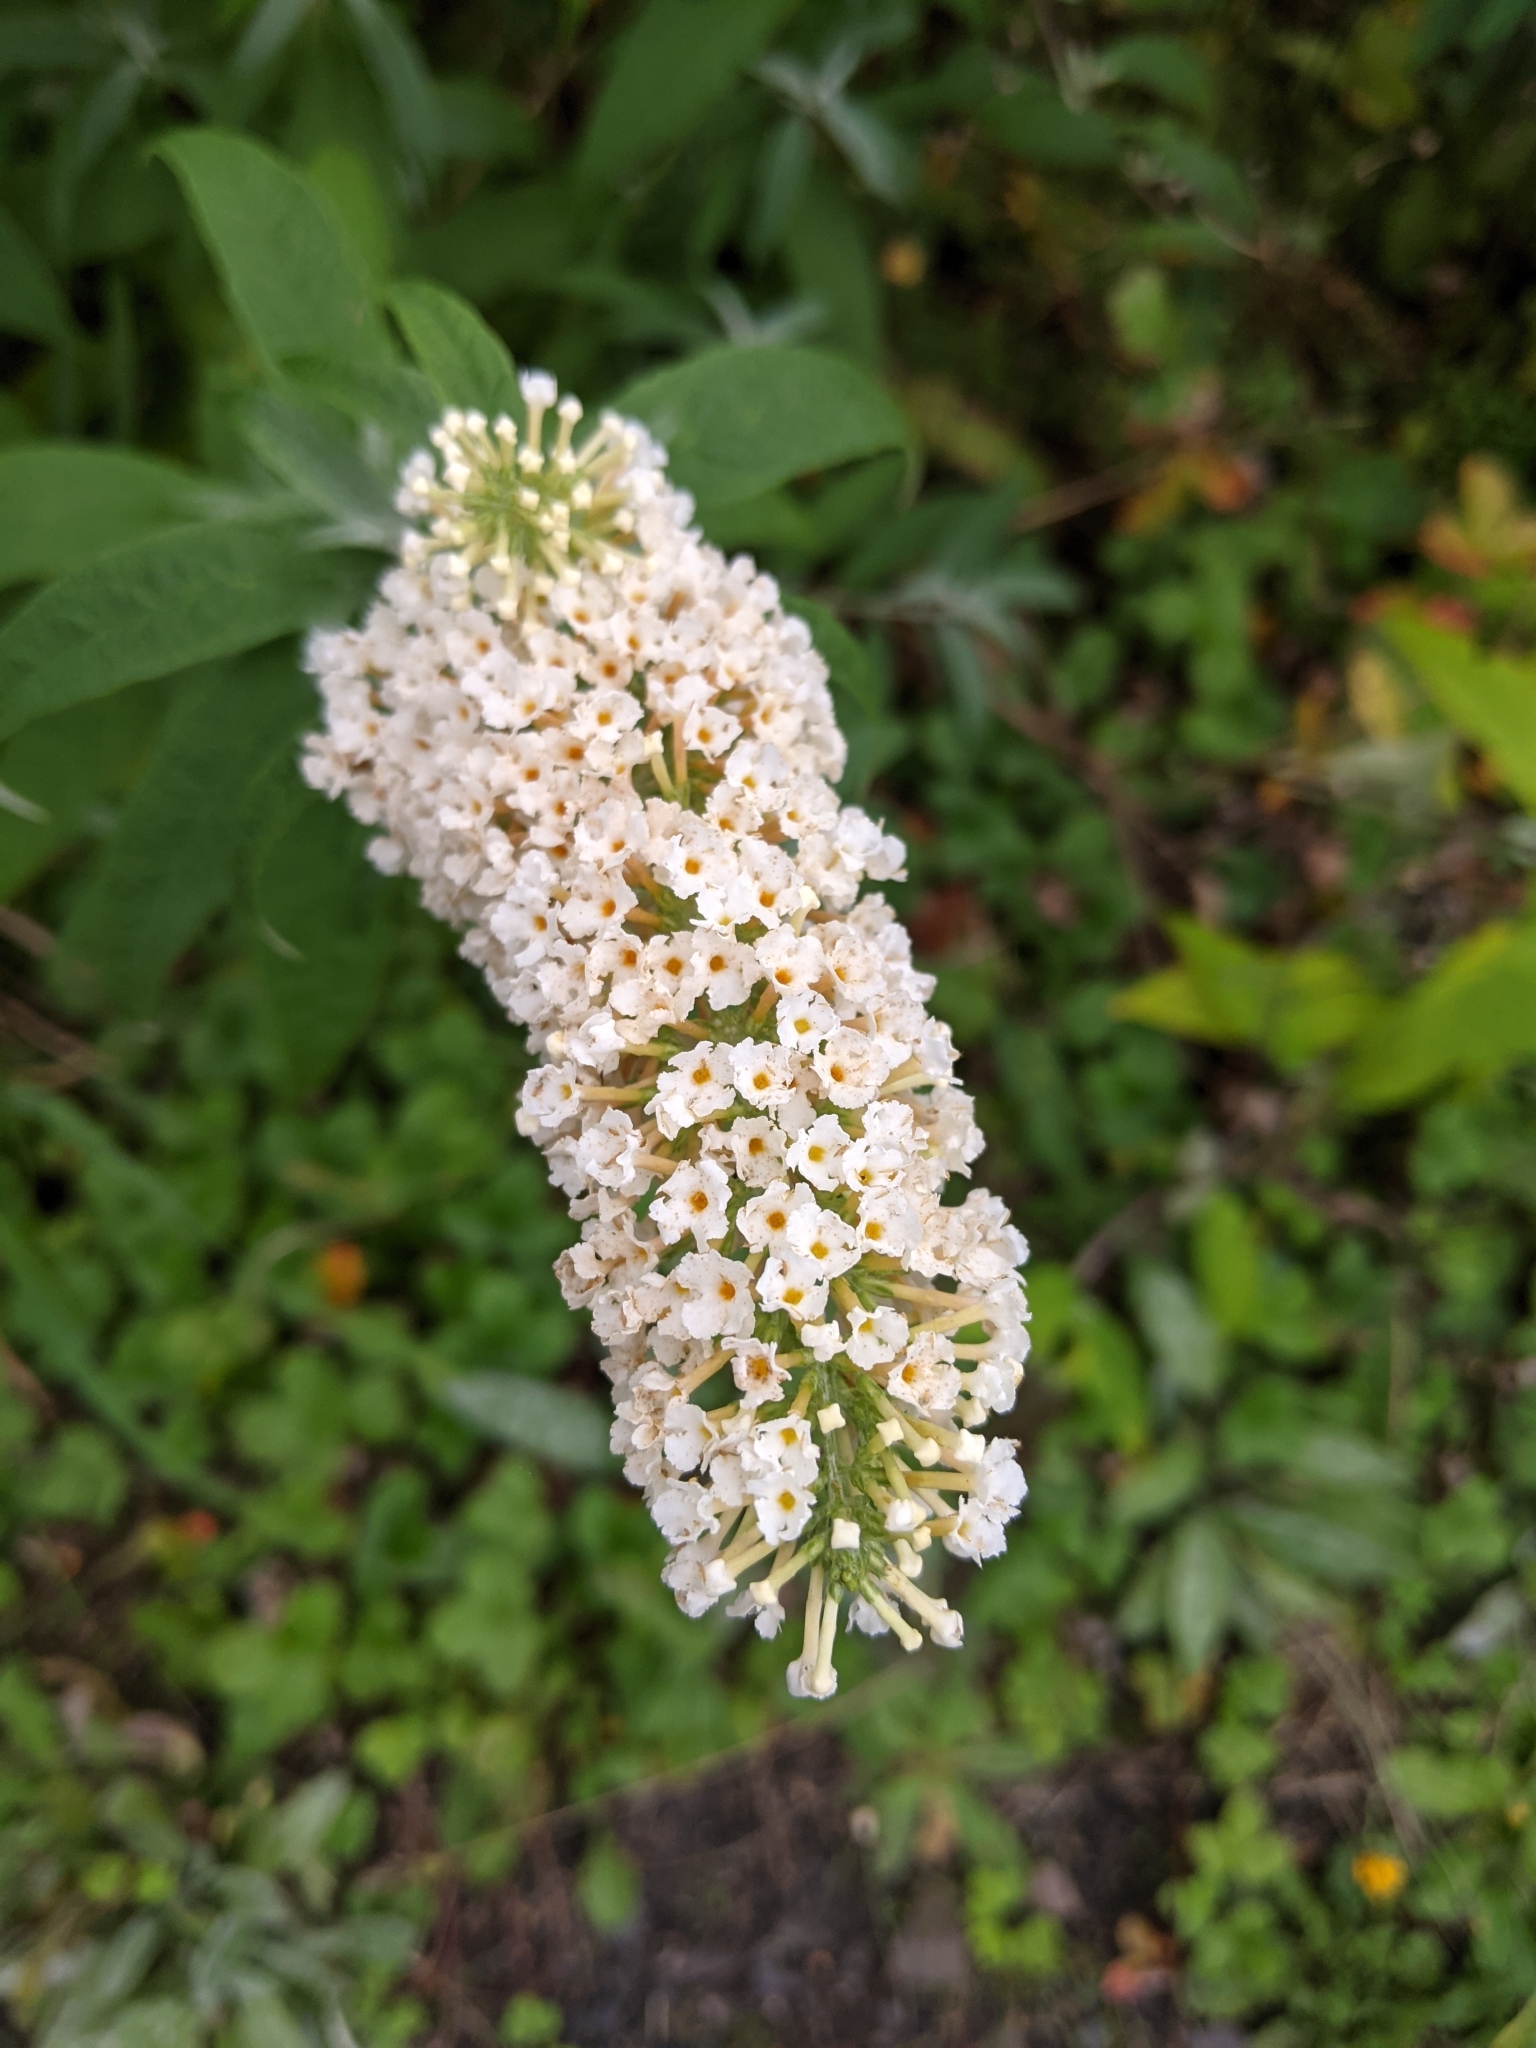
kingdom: Plantae
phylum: Tracheophyta
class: Magnoliopsida
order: Lamiales
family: Scrophulariaceae
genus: Buddleja
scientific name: Buddleja davidii
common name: Butterfly-bush
